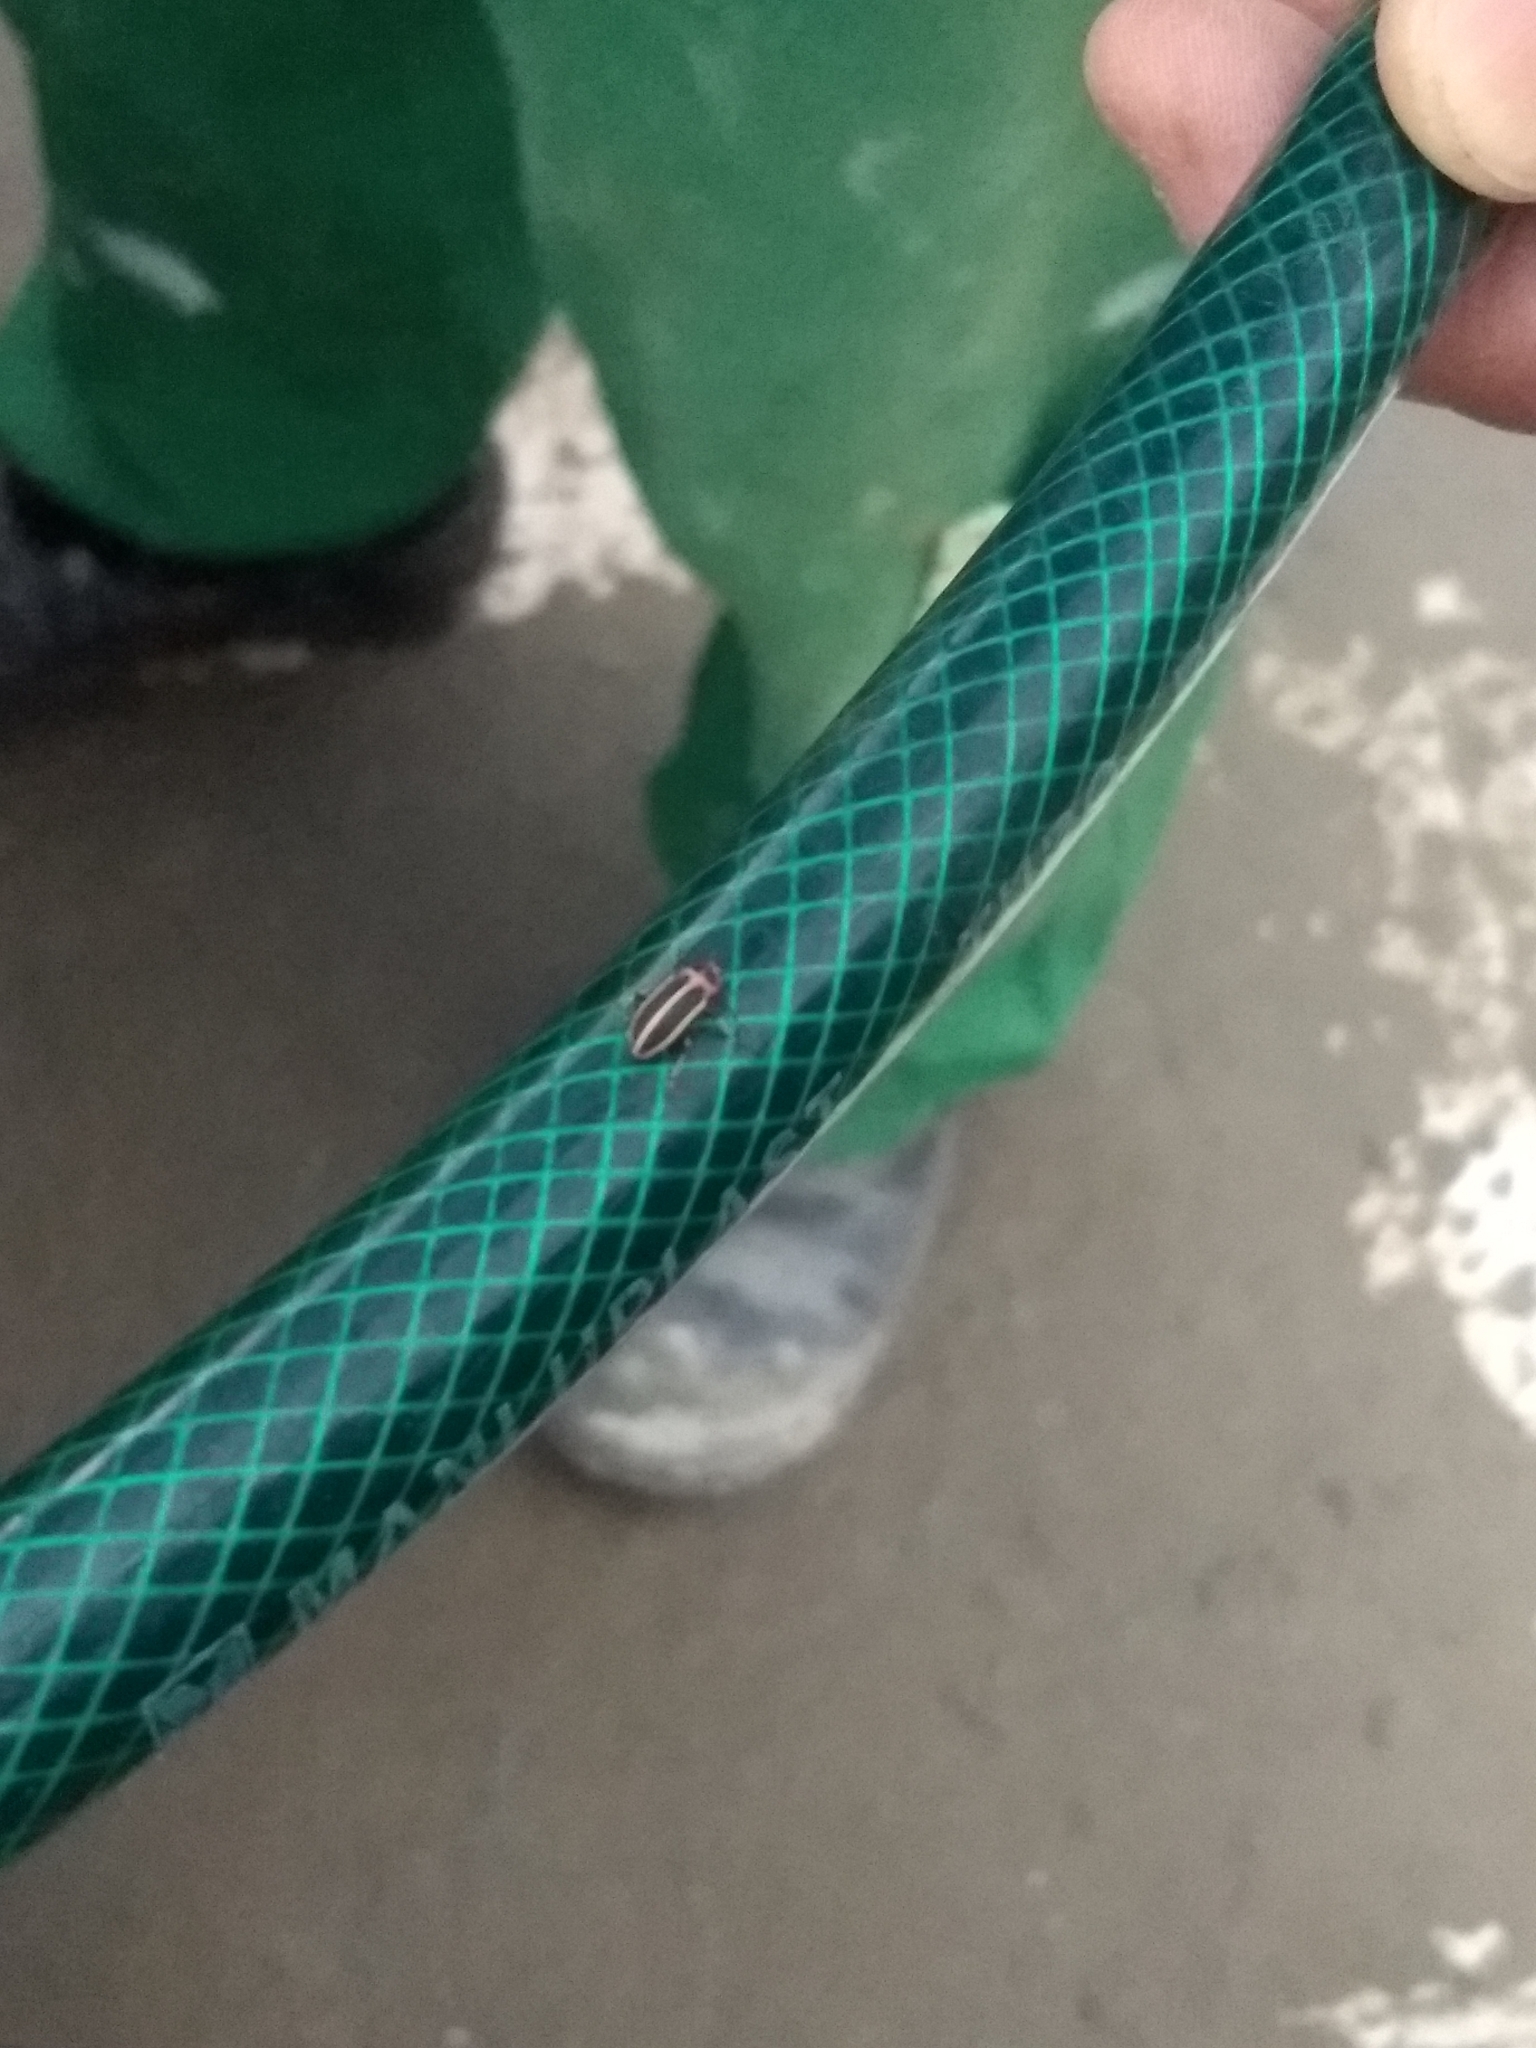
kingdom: Animalia
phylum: Arthropoda
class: Insecta
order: Coleoptera
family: Curculionidae
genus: Eudiagogus
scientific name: Eudiagogus episcopalis
